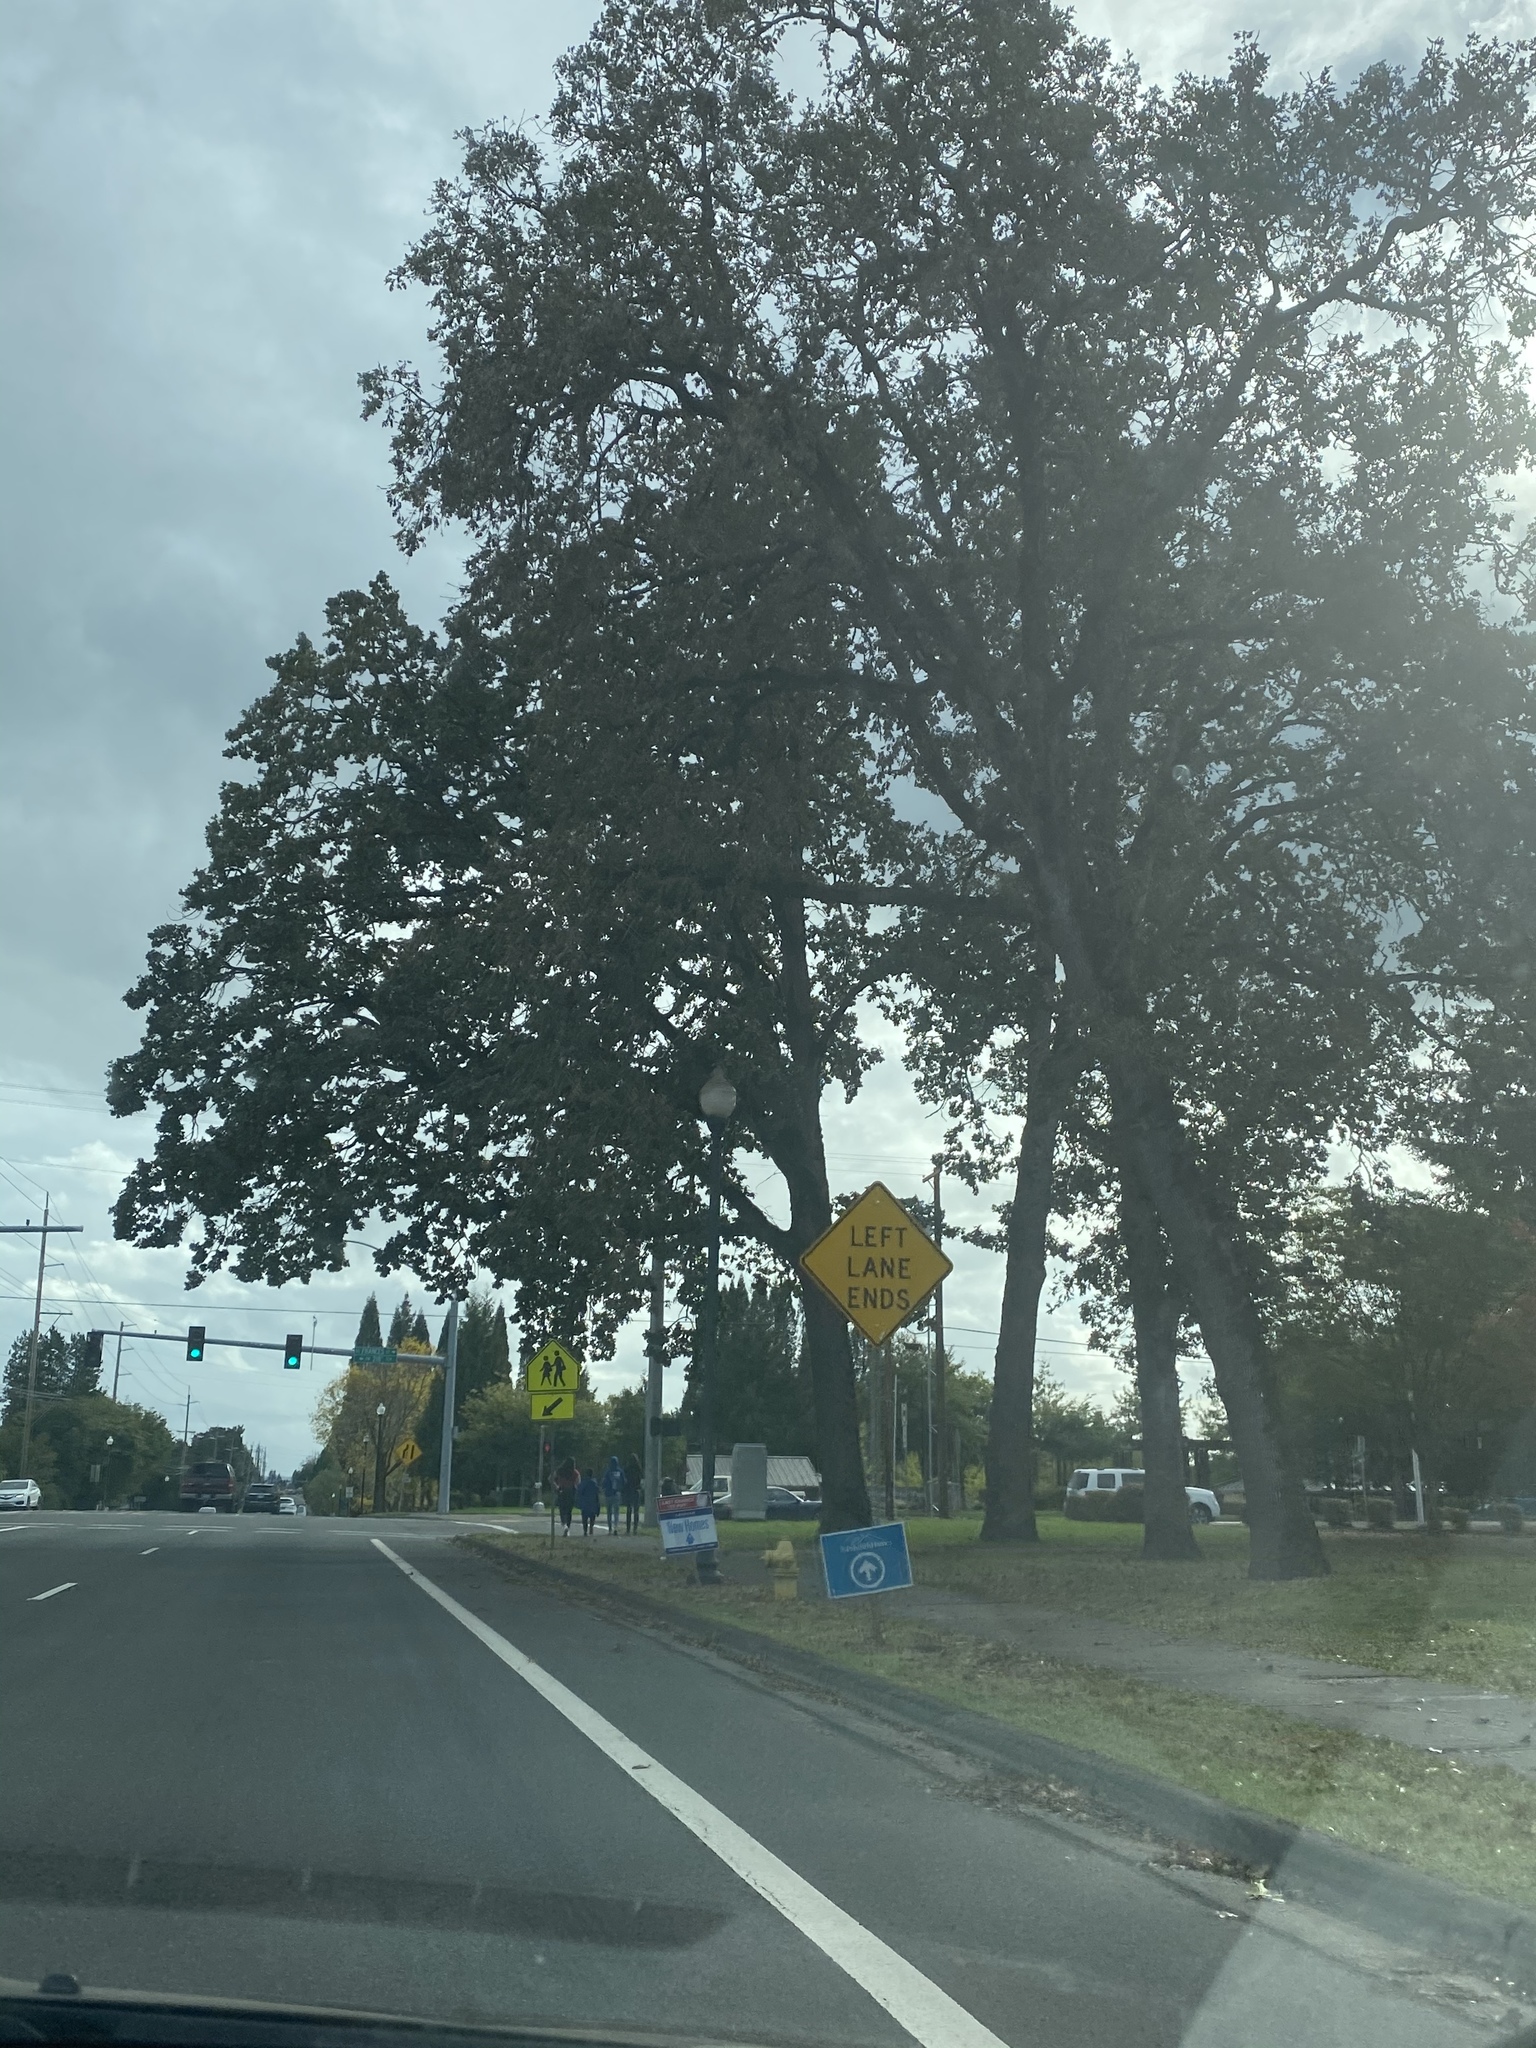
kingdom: Plantae
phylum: Tracheophyta
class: Magnoliopsida
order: Fagales
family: Fagaceae
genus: Quercus
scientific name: Quercus garryana
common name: Garry oak
